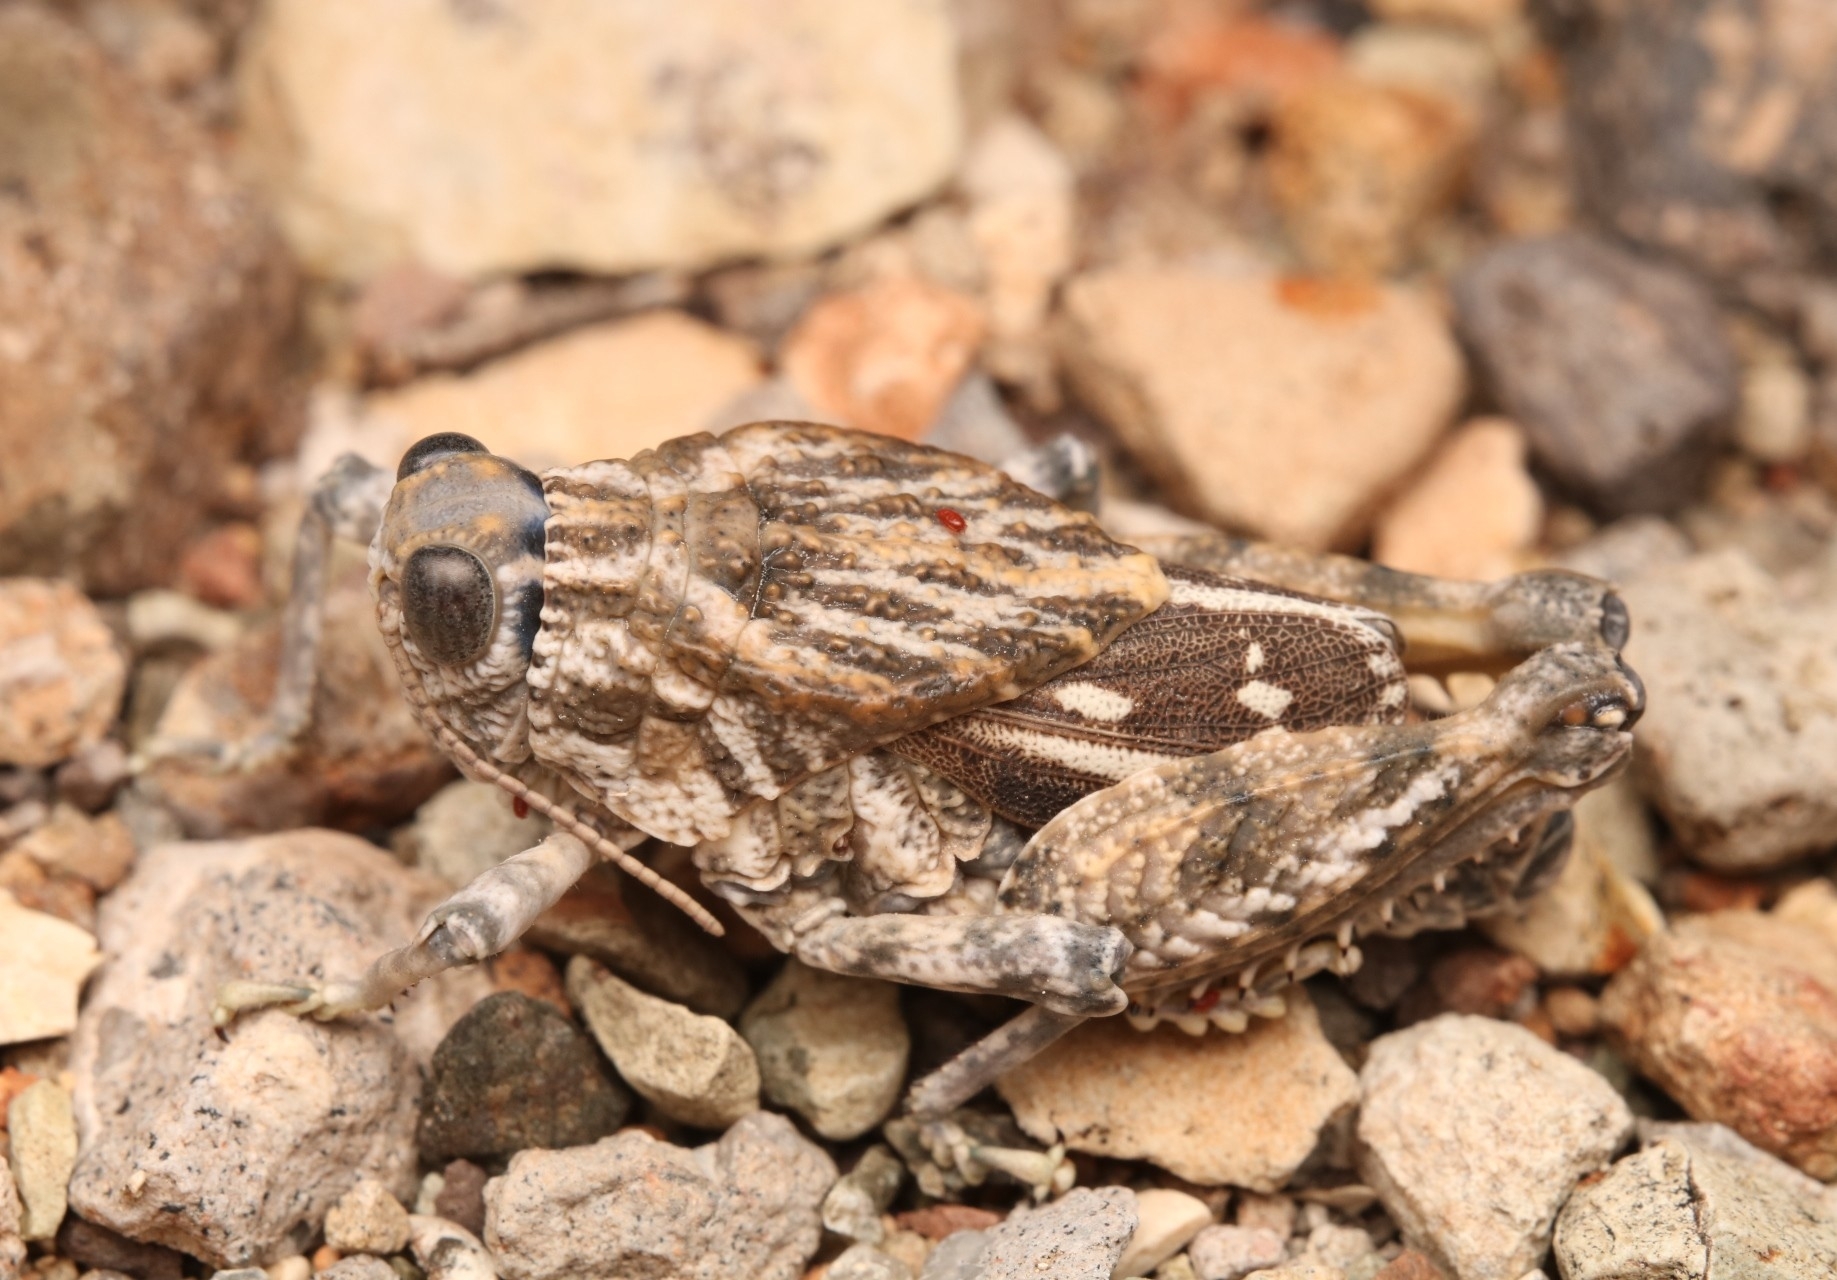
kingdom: Animalia
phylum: Arthropoda
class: Insecta
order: Orthoptera
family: Romaleidae
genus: Phrynotettix
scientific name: Phrynotettix robustus
